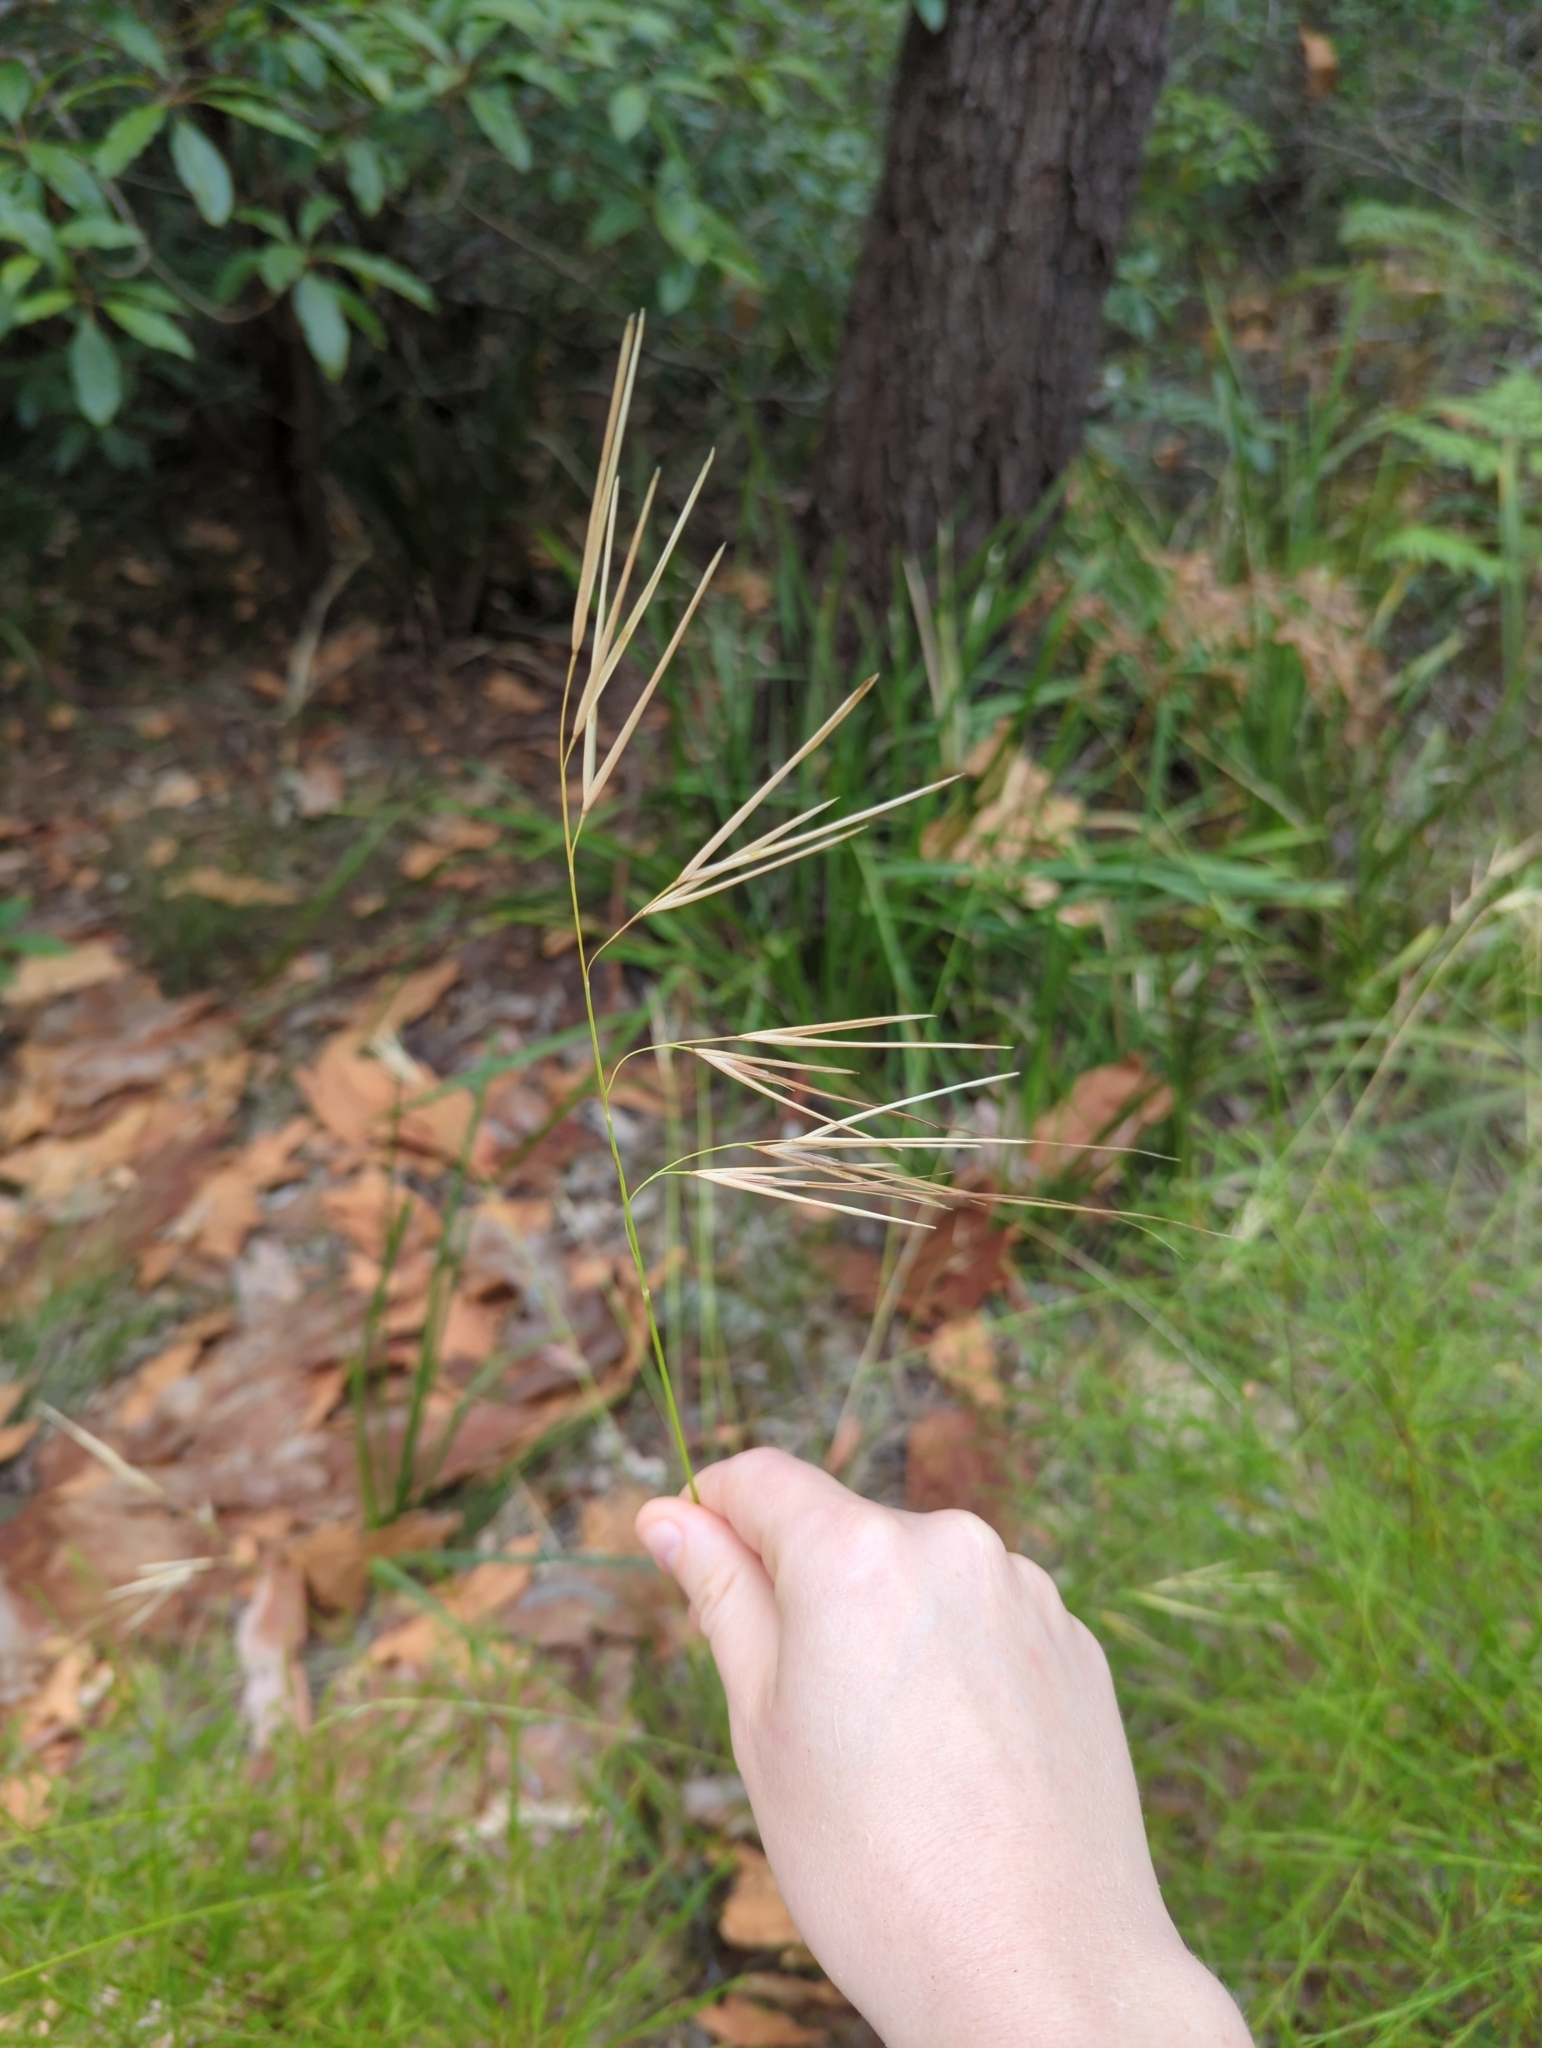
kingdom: Plantae
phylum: Tracheophyta
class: Liliopsida
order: Poales
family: Poaceae
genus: Anisopogon
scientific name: Anisopogon avenaceus
